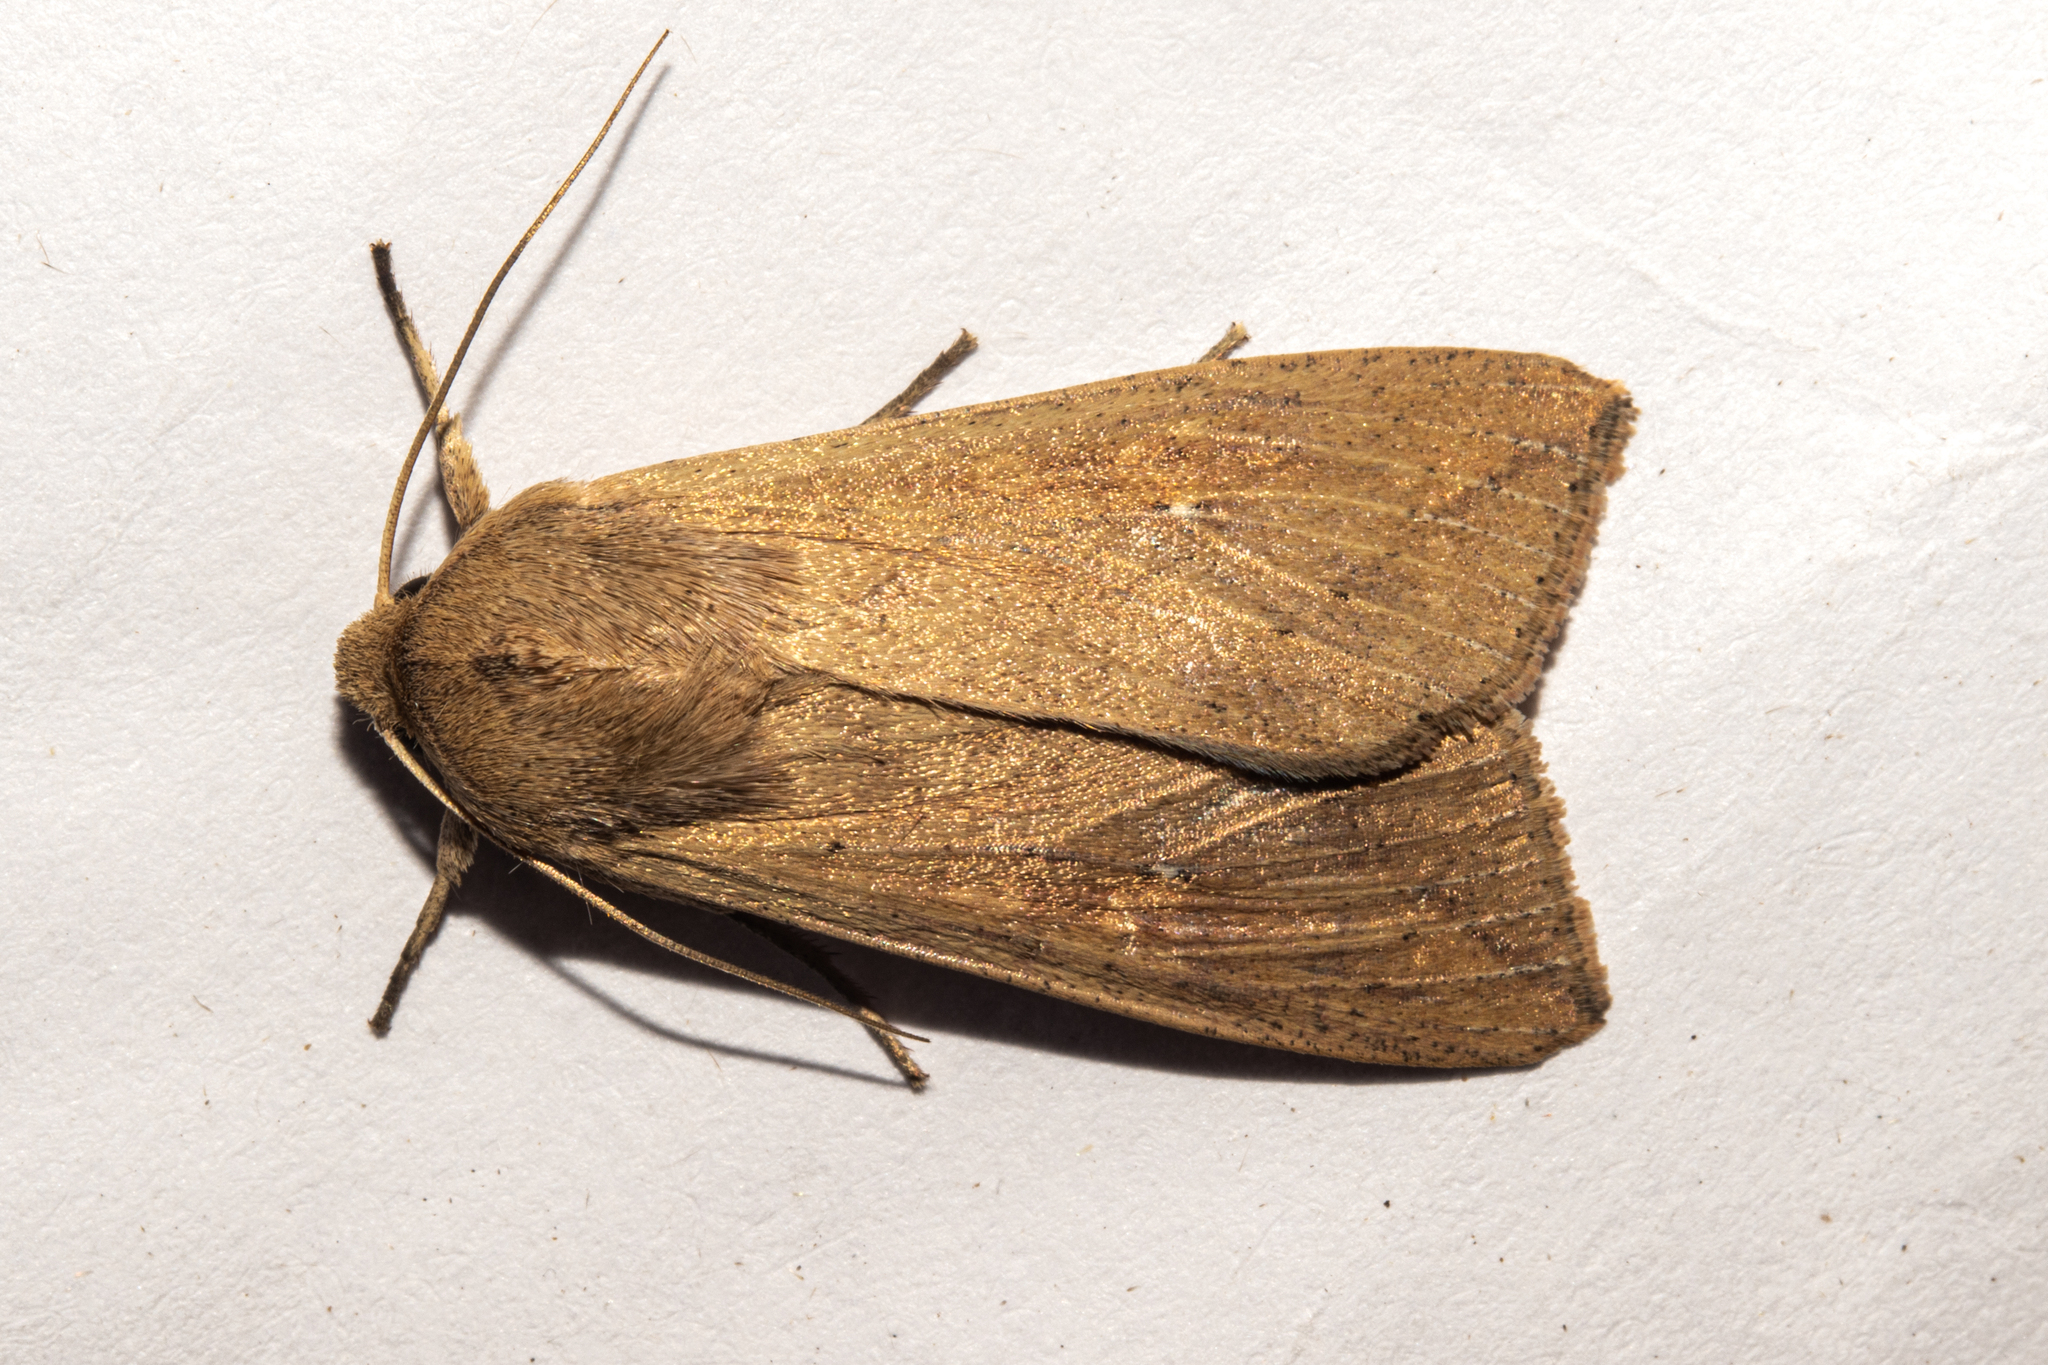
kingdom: Animalia
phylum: Arthropoda
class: Insecta
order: Lepidoptera
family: Noctuidae
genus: Mythimna
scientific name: Mythimna separata
